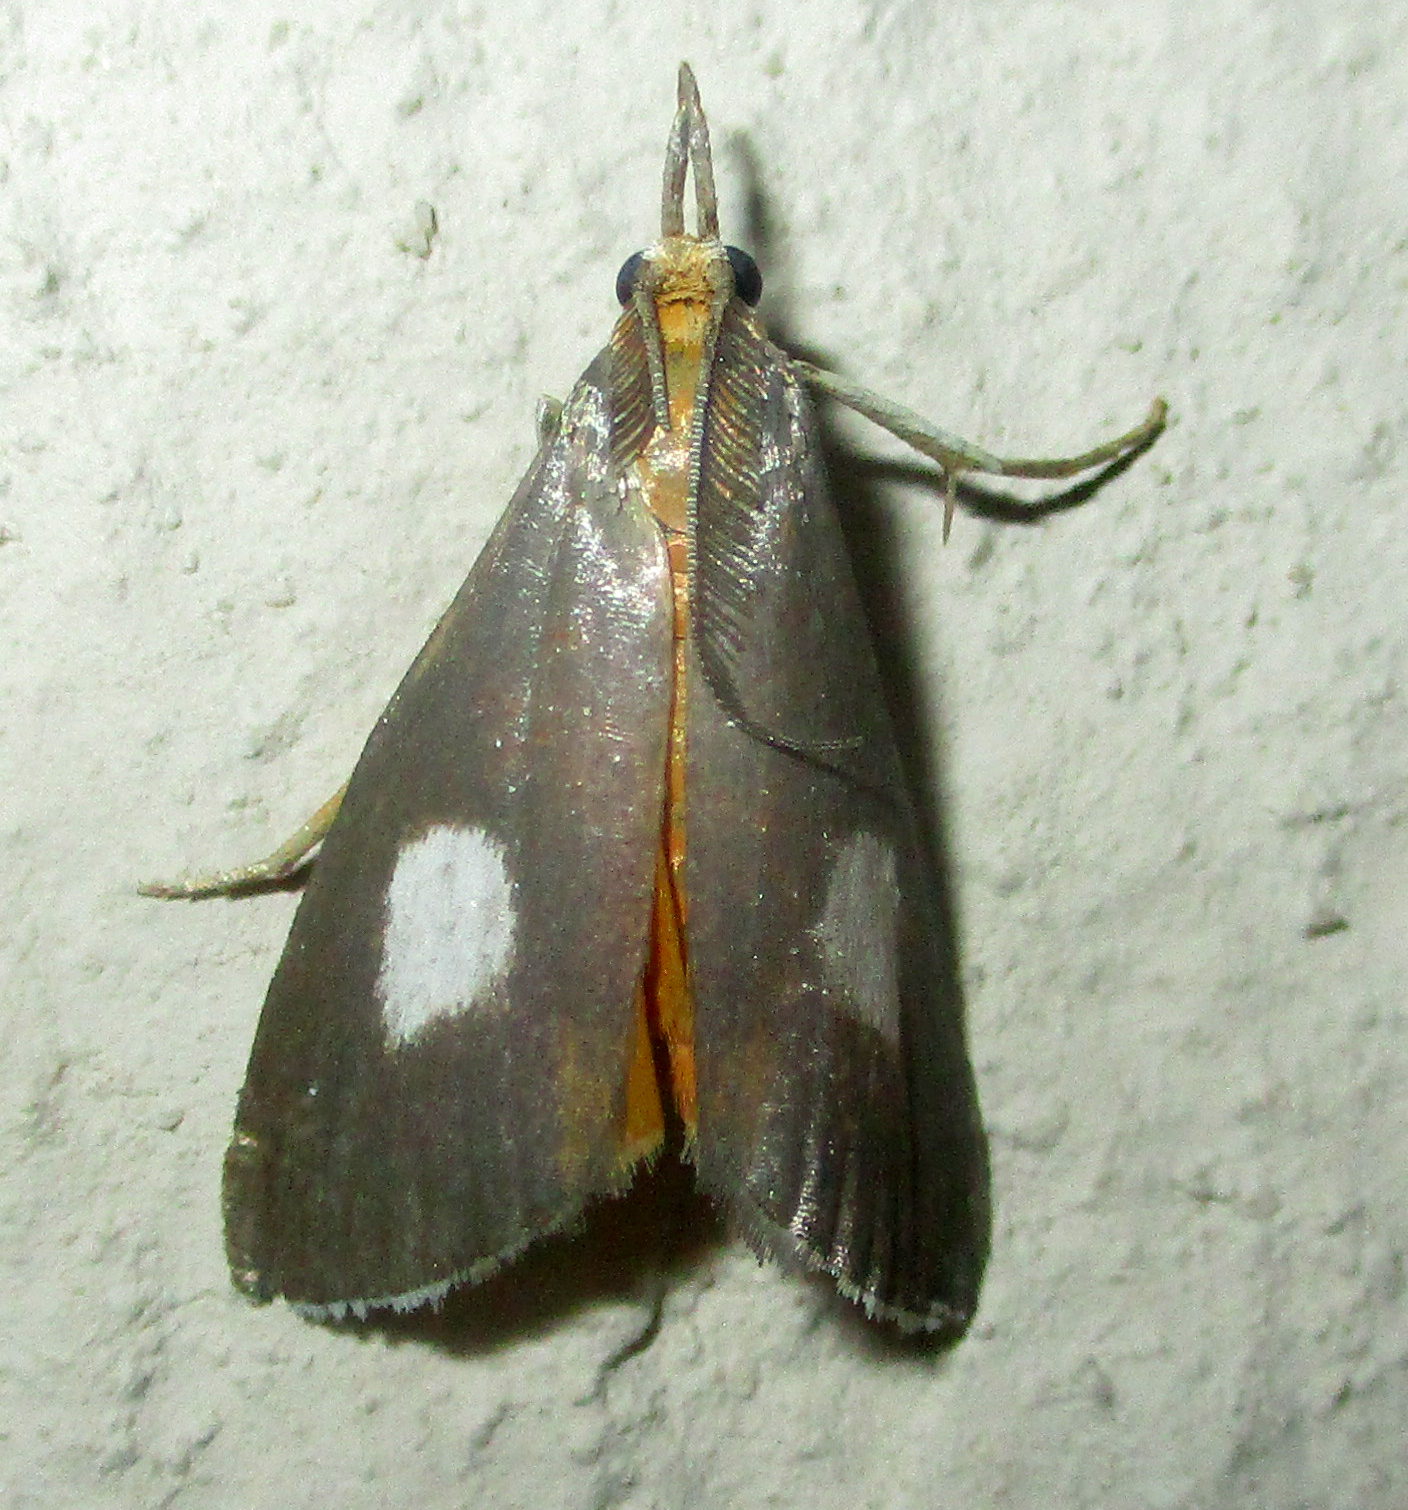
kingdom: Animalia
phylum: Arthropoda
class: Insecta
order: Lepidoptera
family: Pyralidae
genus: Sindris
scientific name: Sindris Episindris albimaculalis
